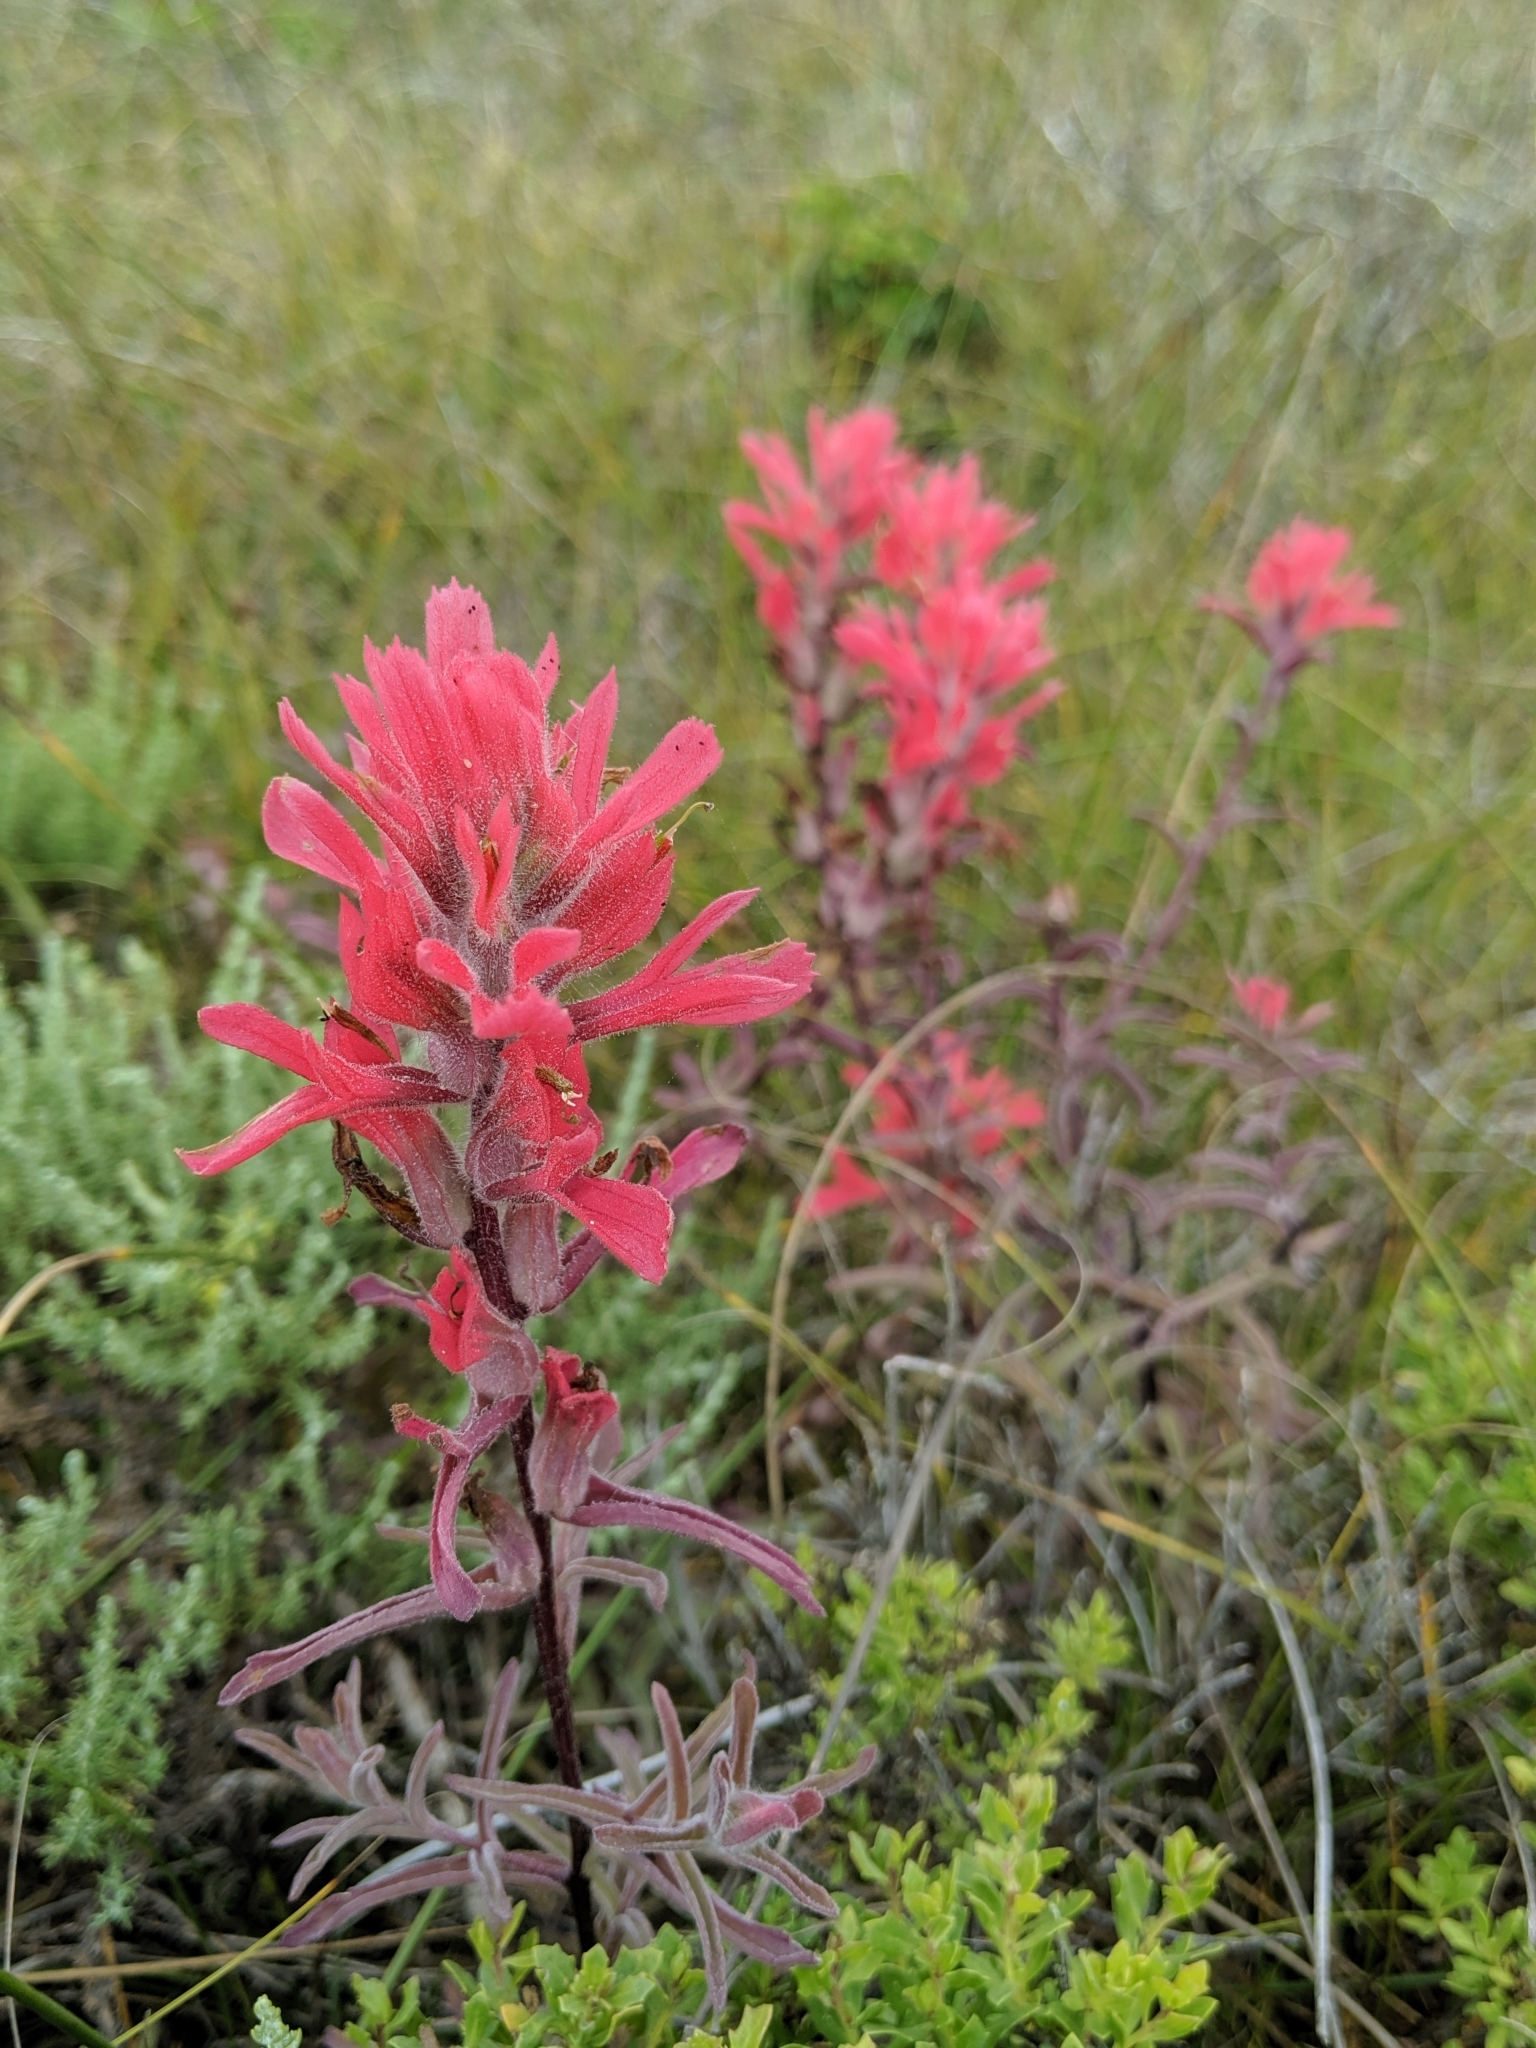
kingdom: Plantae
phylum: Tracheophyta
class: Magnoliopsida
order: Lamiales
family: Orobanchaceae
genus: Castilleja
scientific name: Castilleja affinis
